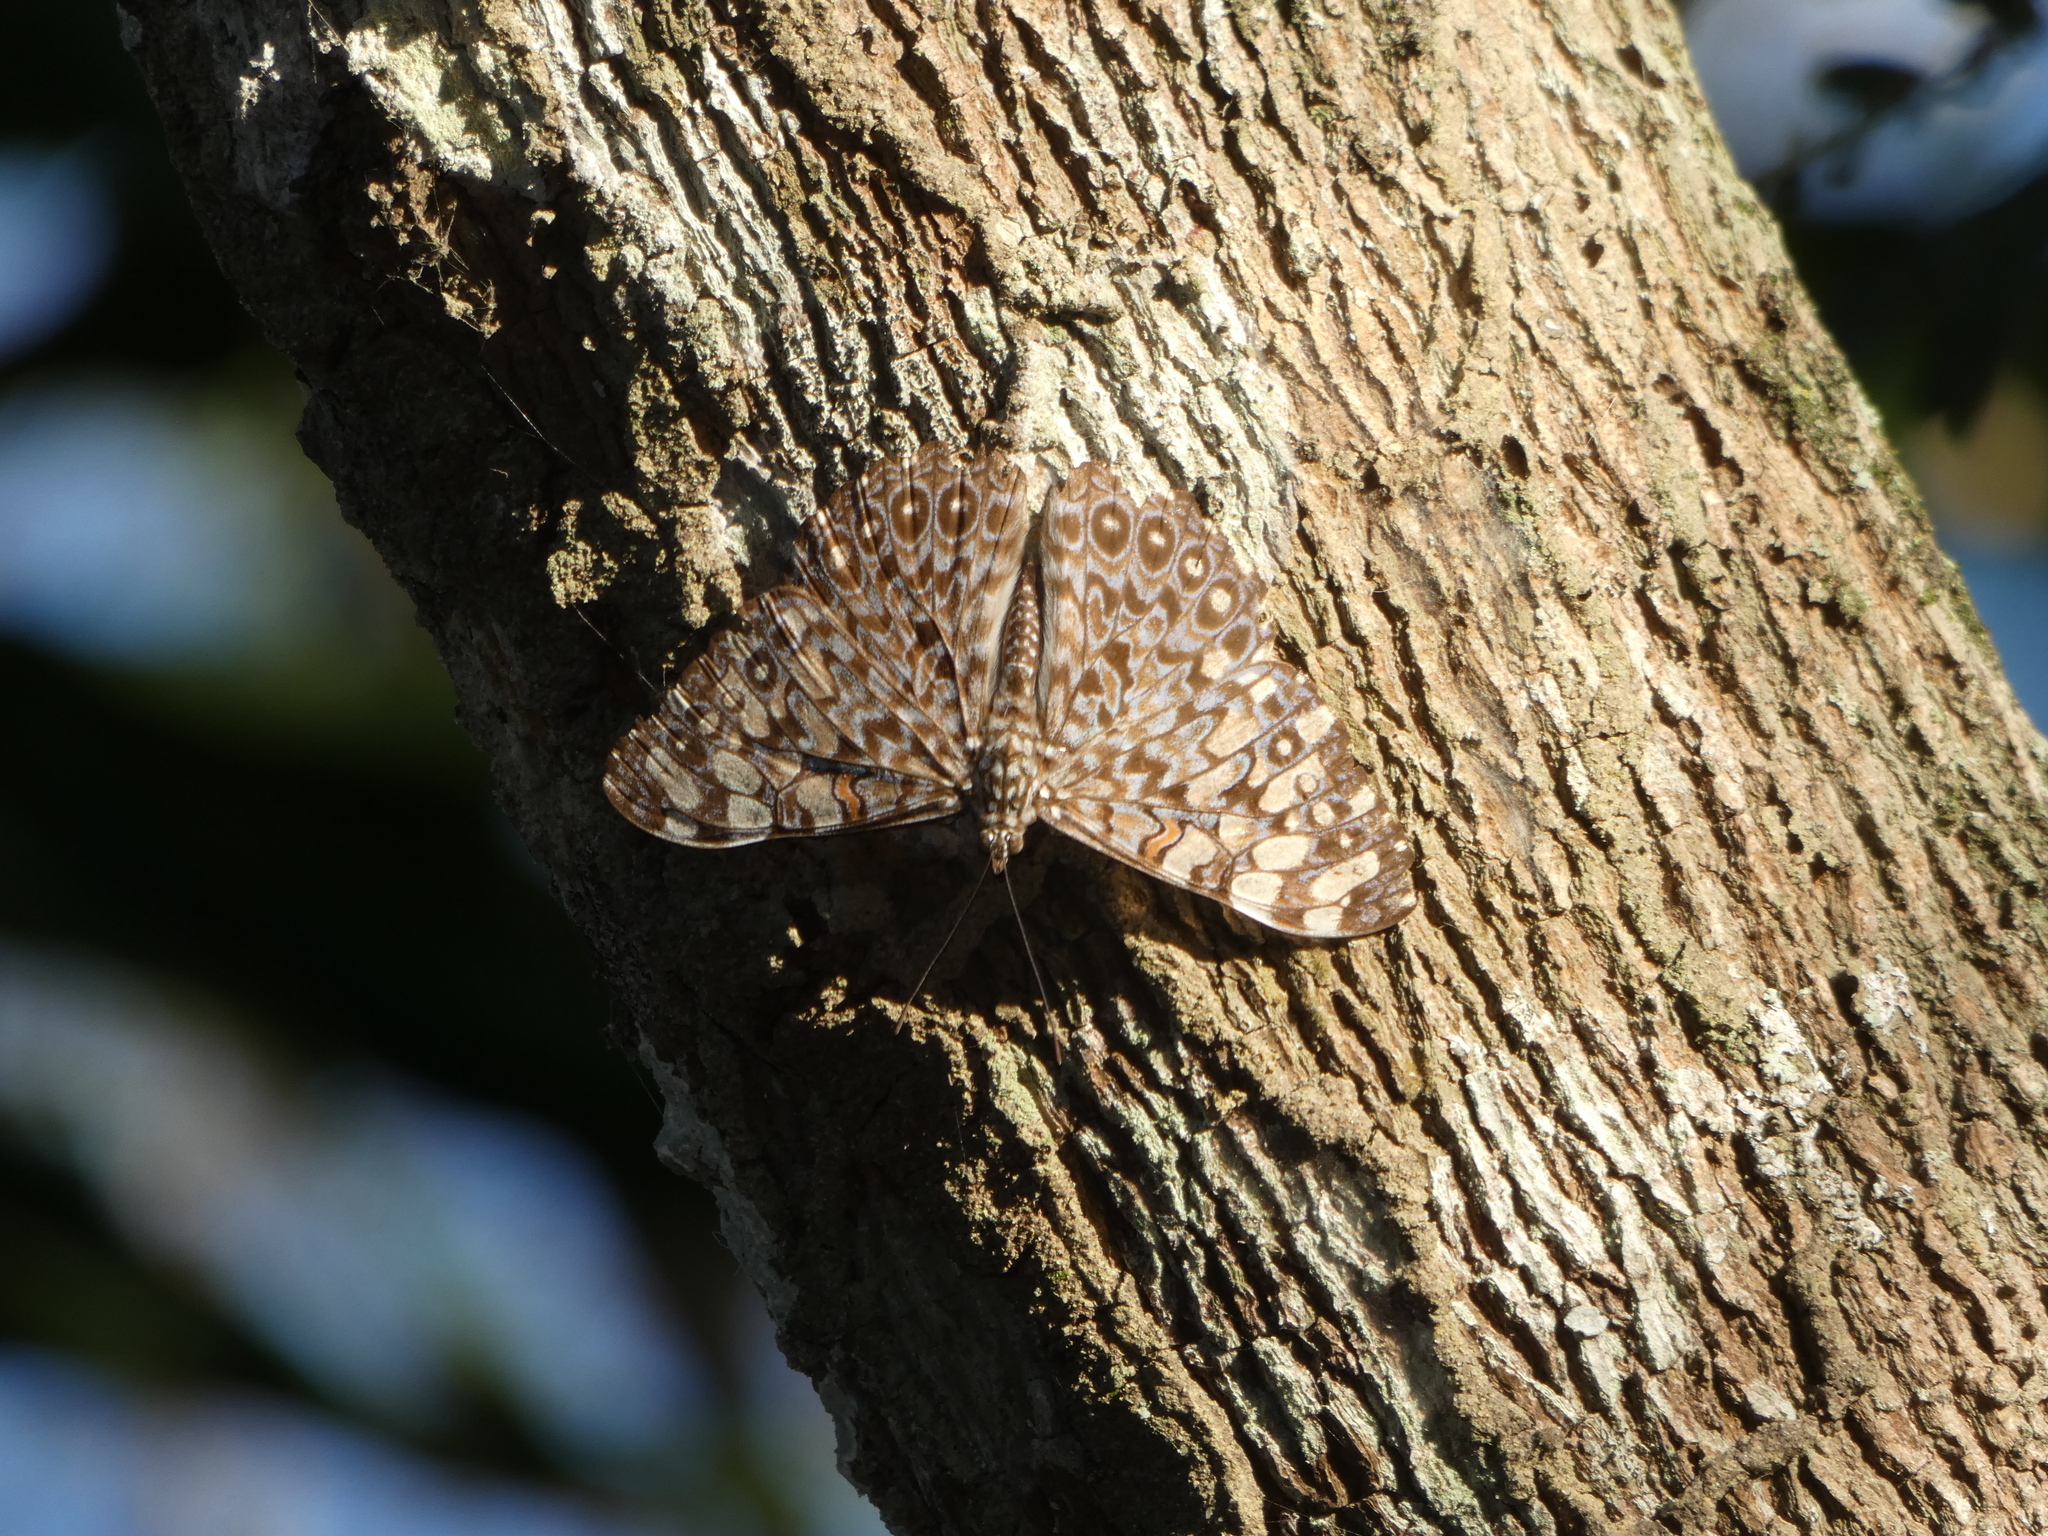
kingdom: Animalia
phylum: Arthropoda
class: Insecta
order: Lepidoptera
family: Nymphalidae
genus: Hamadryas
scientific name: Hamadryas feronia
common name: Variable cracker
